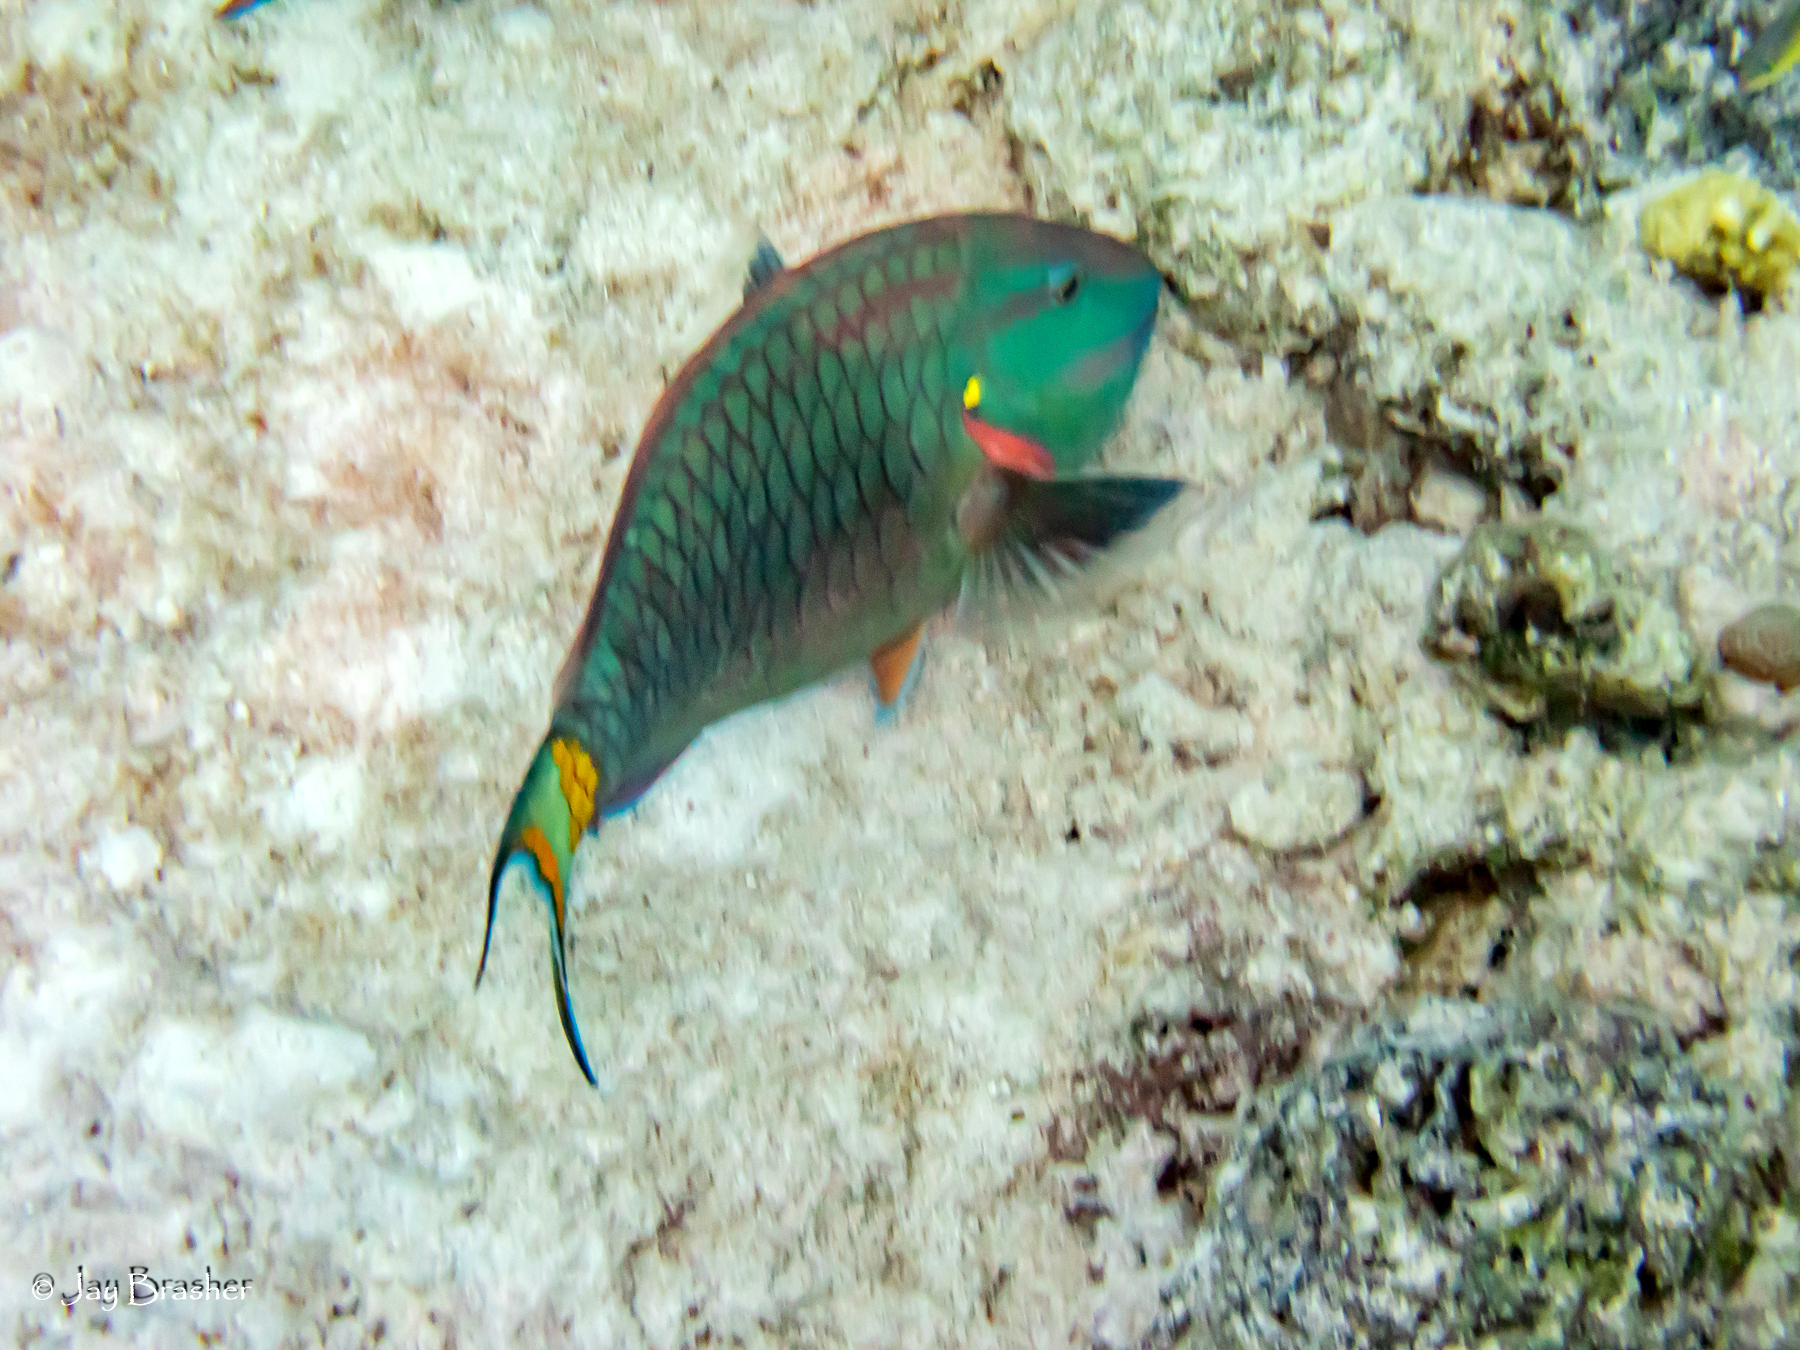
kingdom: Animalia
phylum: Chordata
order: Perciformes
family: Scaridae
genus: Sparisoma
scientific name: Sparisoma viride
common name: Stoplight parrotfish
